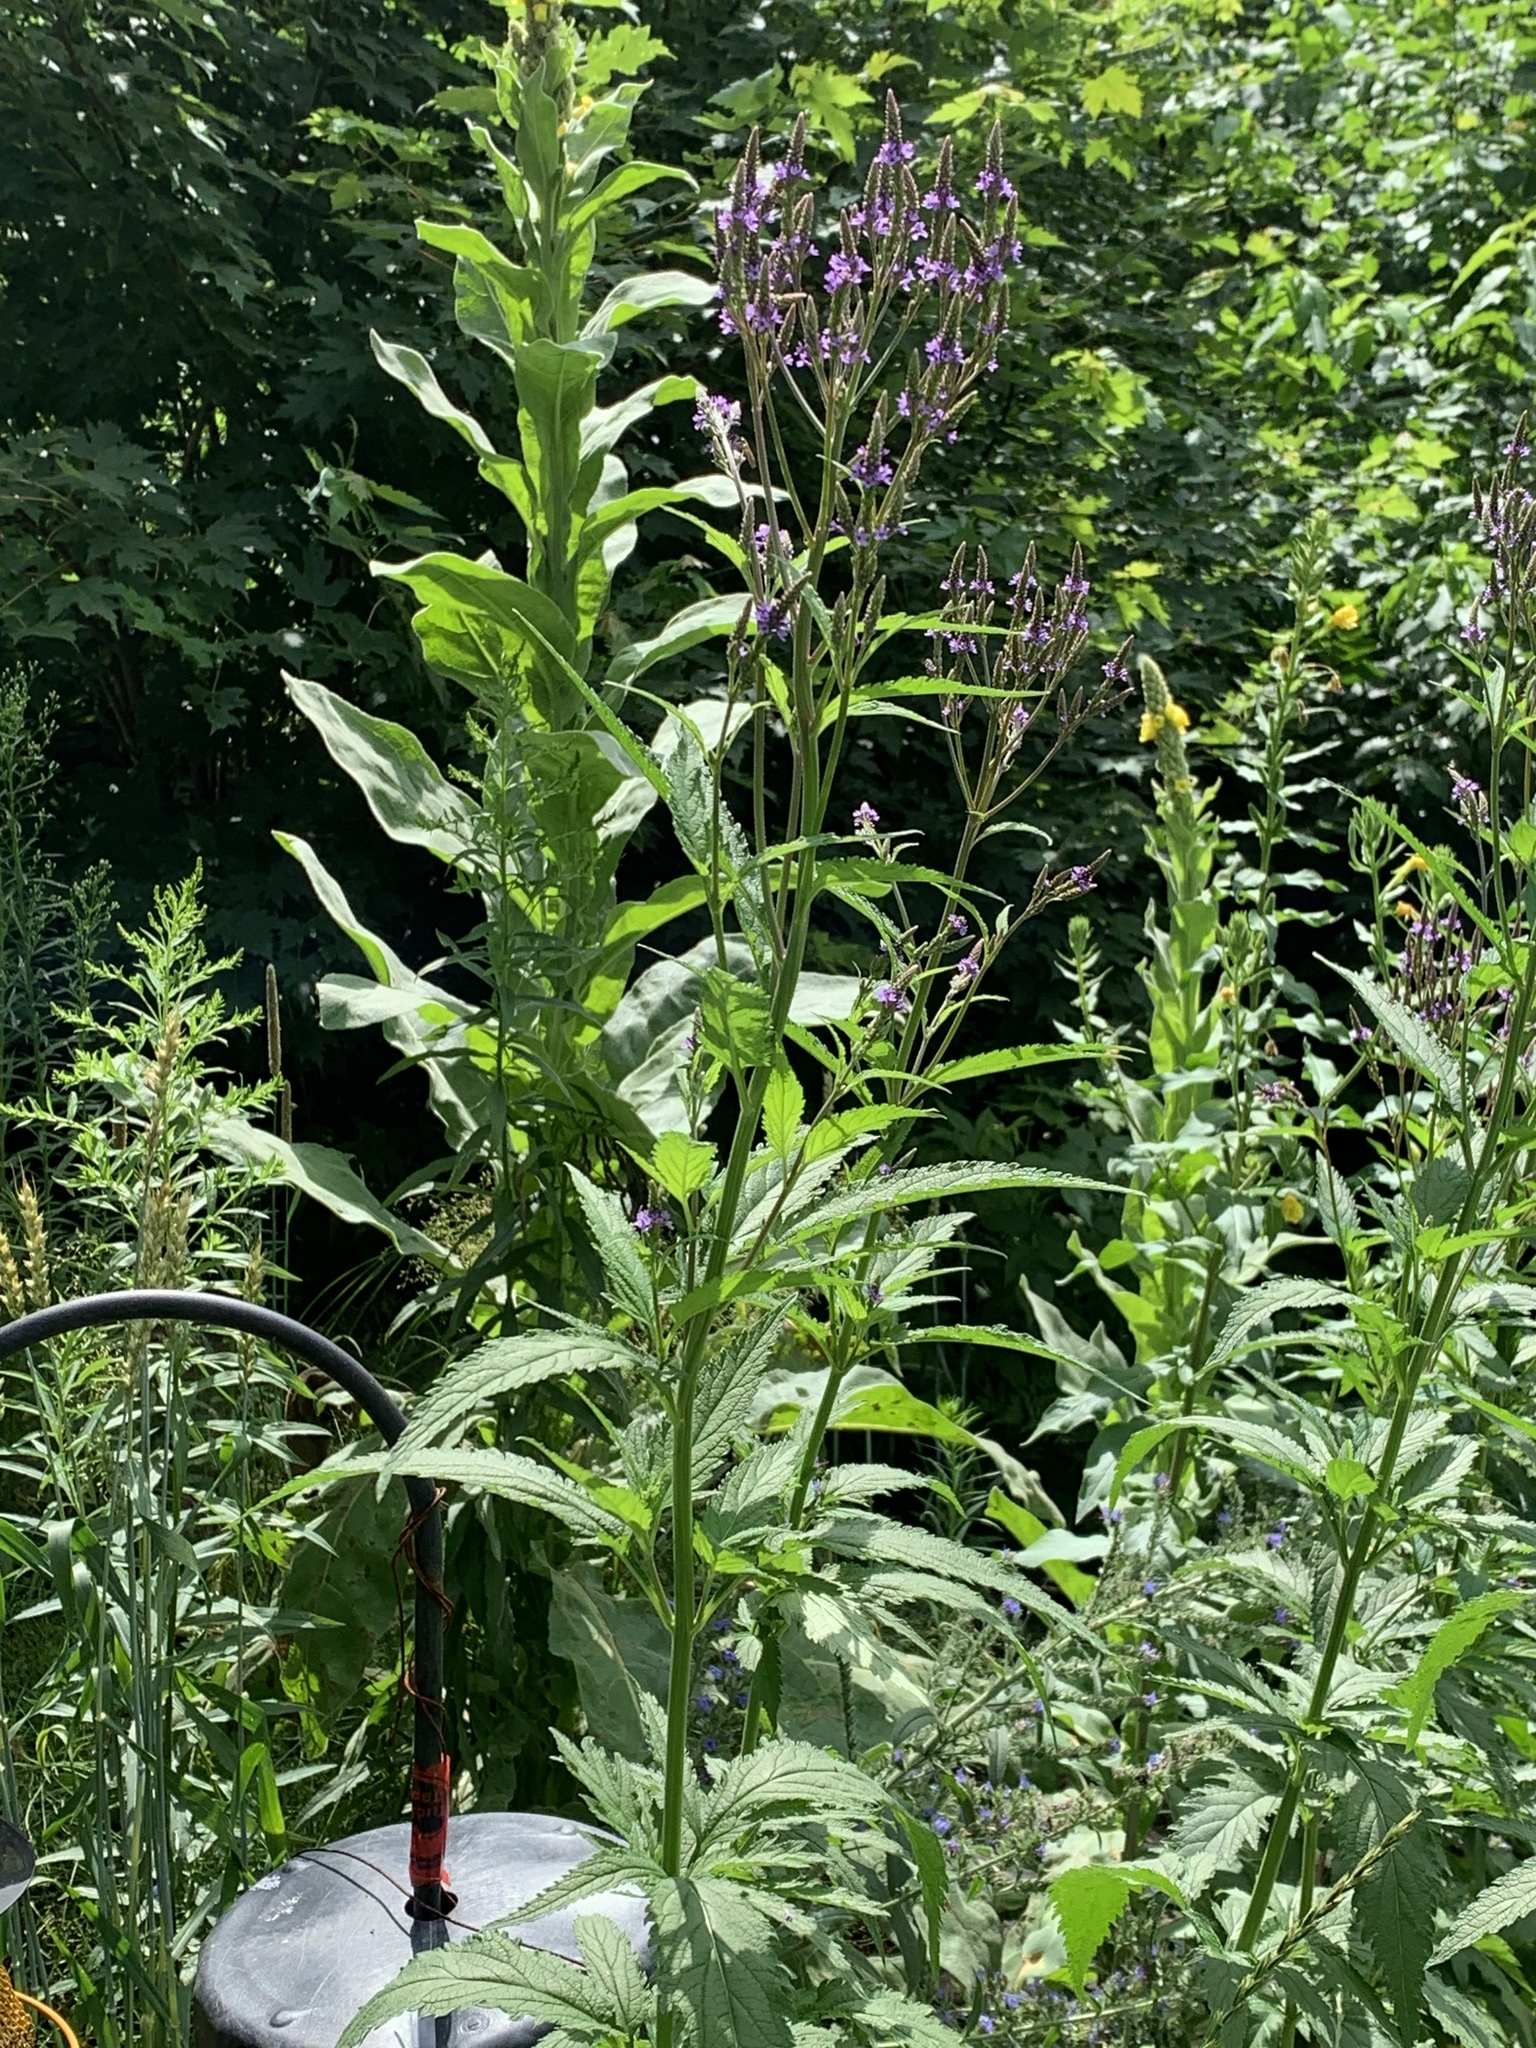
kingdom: Plantae
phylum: Tracheophyta
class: Magnoliopsida
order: Lamiales
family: Verbenaceae
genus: Verbena
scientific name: Verbena hastata
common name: American blue vervain
